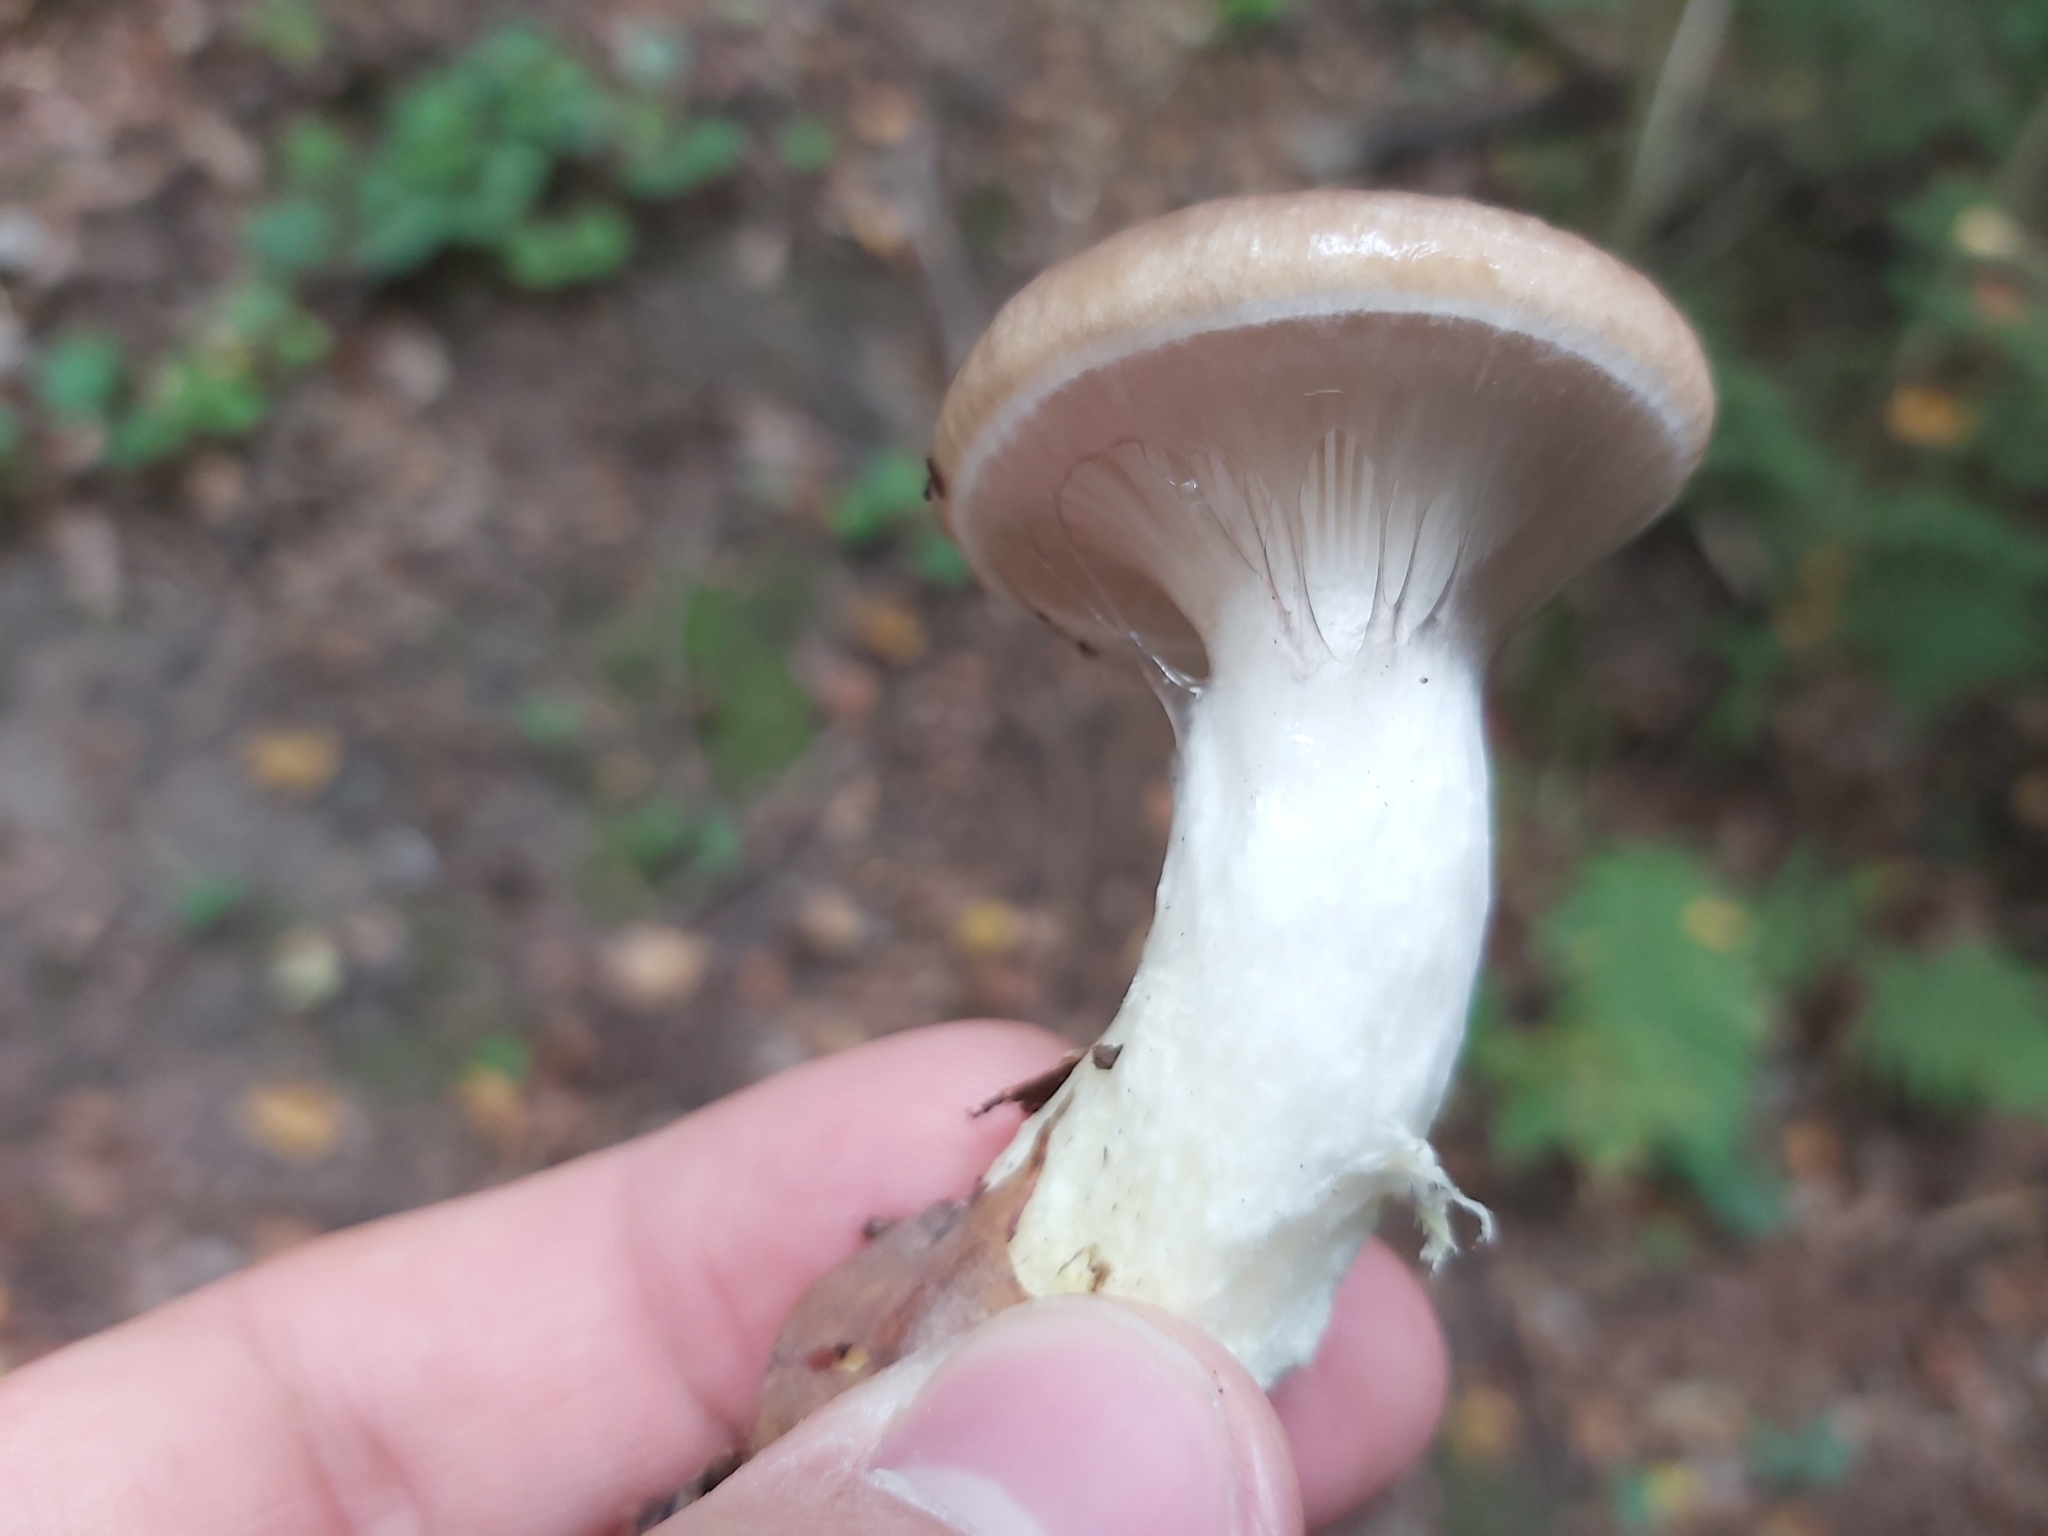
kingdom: Fungi
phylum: Basidiomycota
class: Agaricomycetes
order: Boletales
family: Gomphidiaceae
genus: Gomphidius
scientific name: Gomphidius glutinosus
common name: Slimy spike
